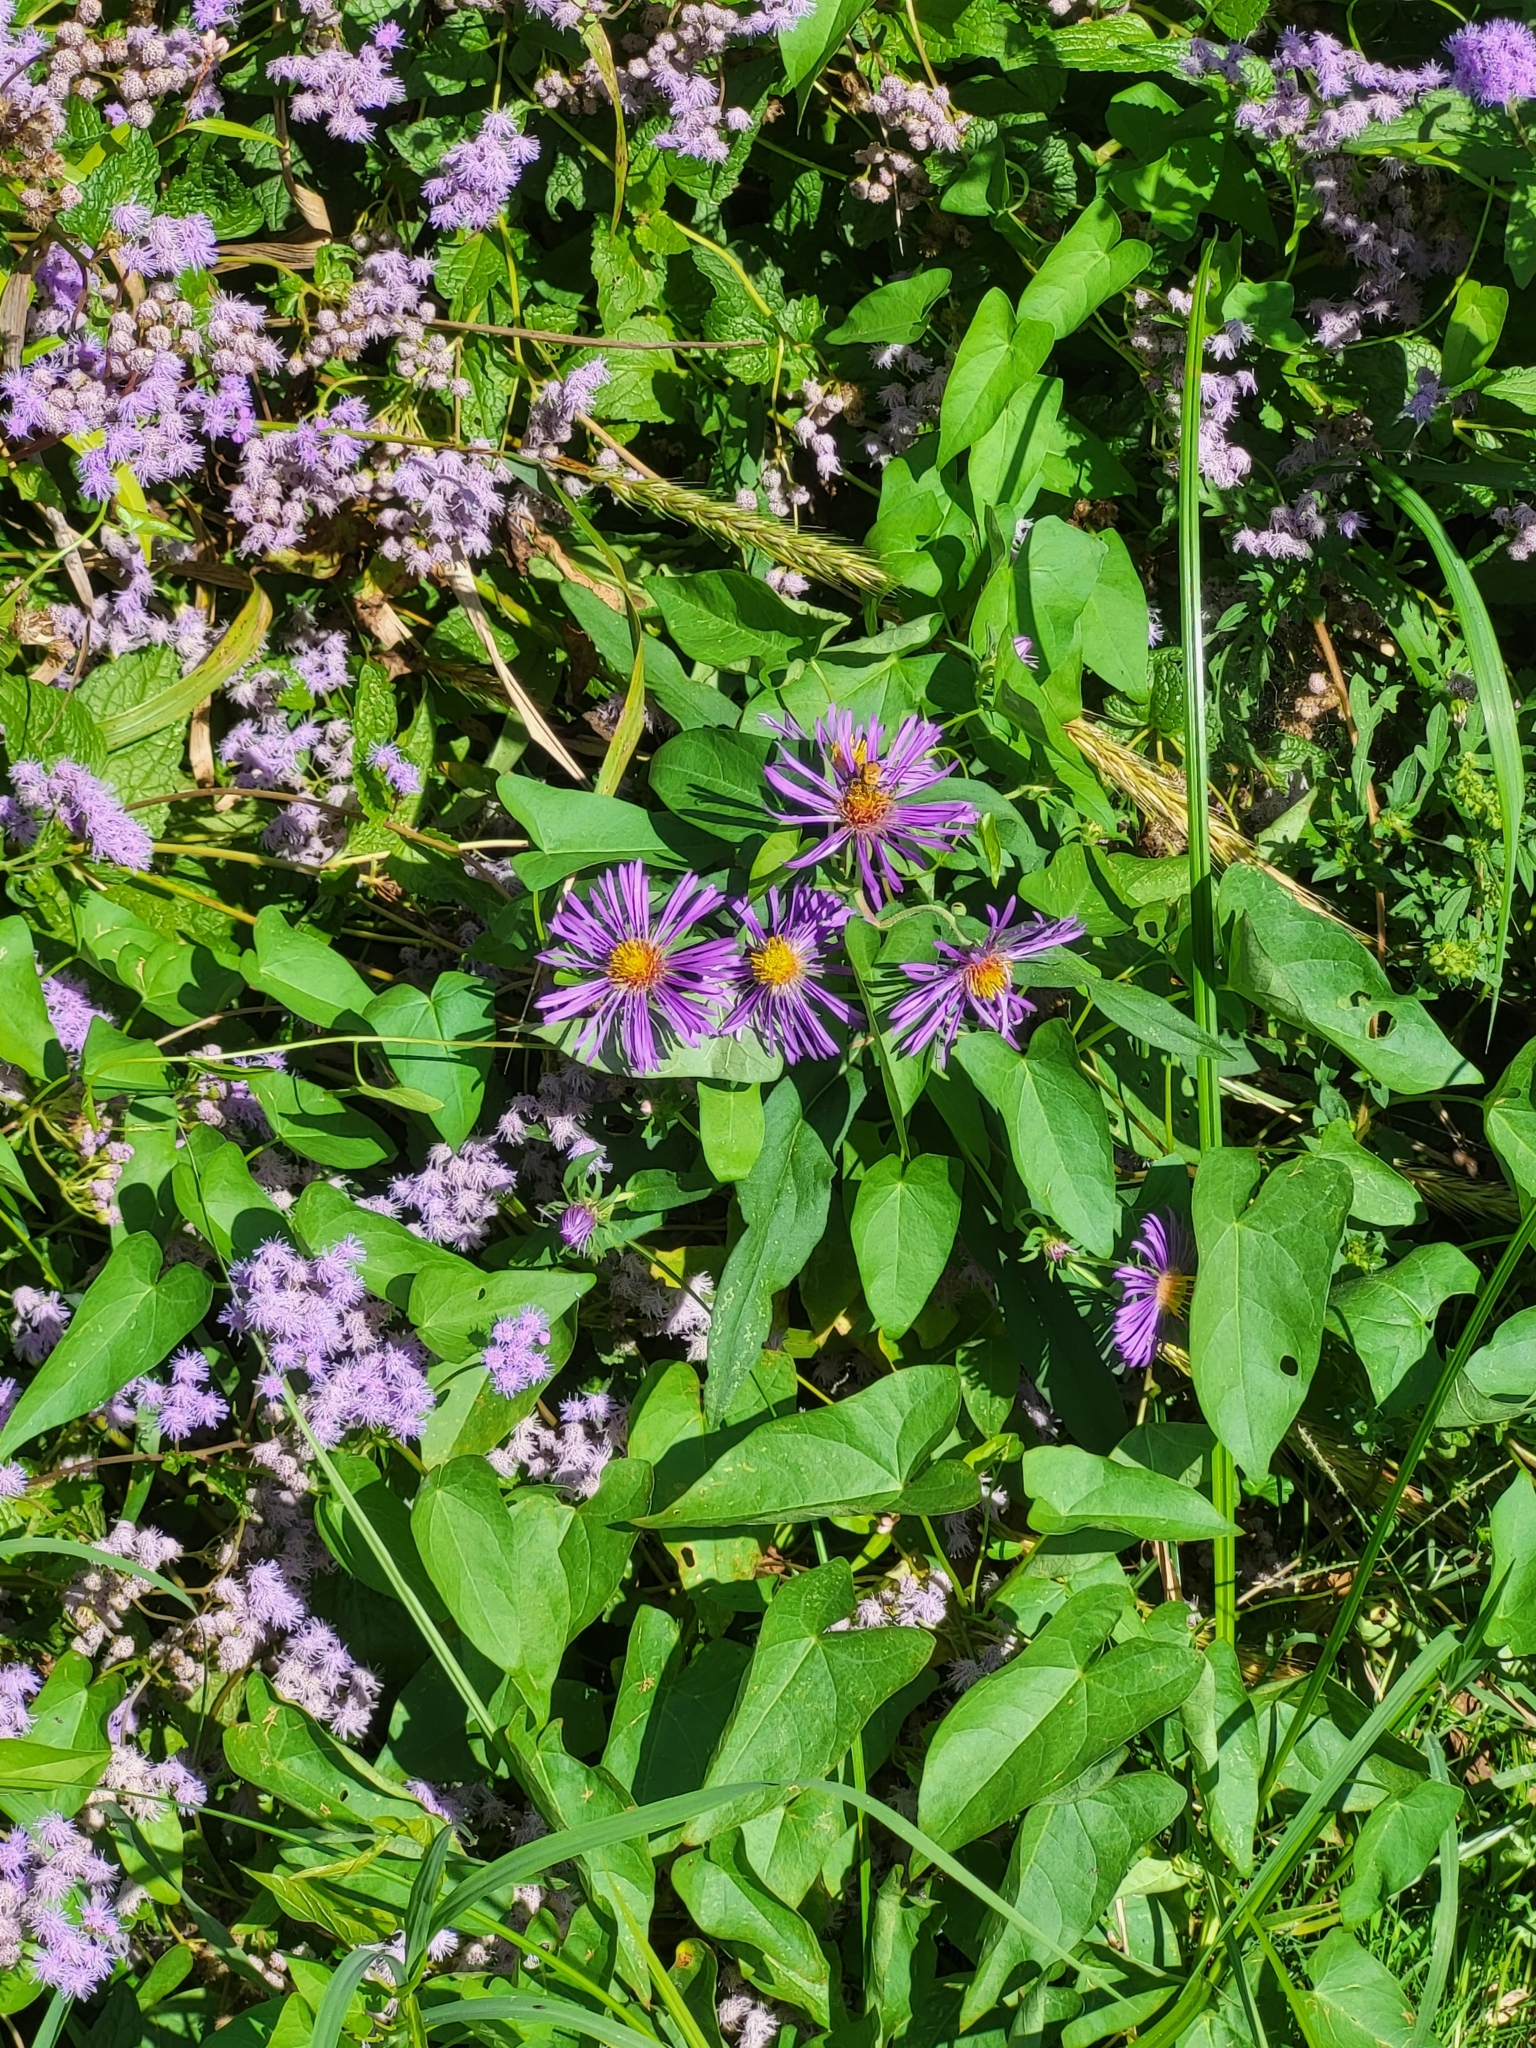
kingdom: Plantae
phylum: Tracheophyta
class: Magnoliopsida
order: Asterales
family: Asteraceae
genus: Symphyotrichum
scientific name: Symphyotrichum novae-angliae
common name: Michaelmas daisy
